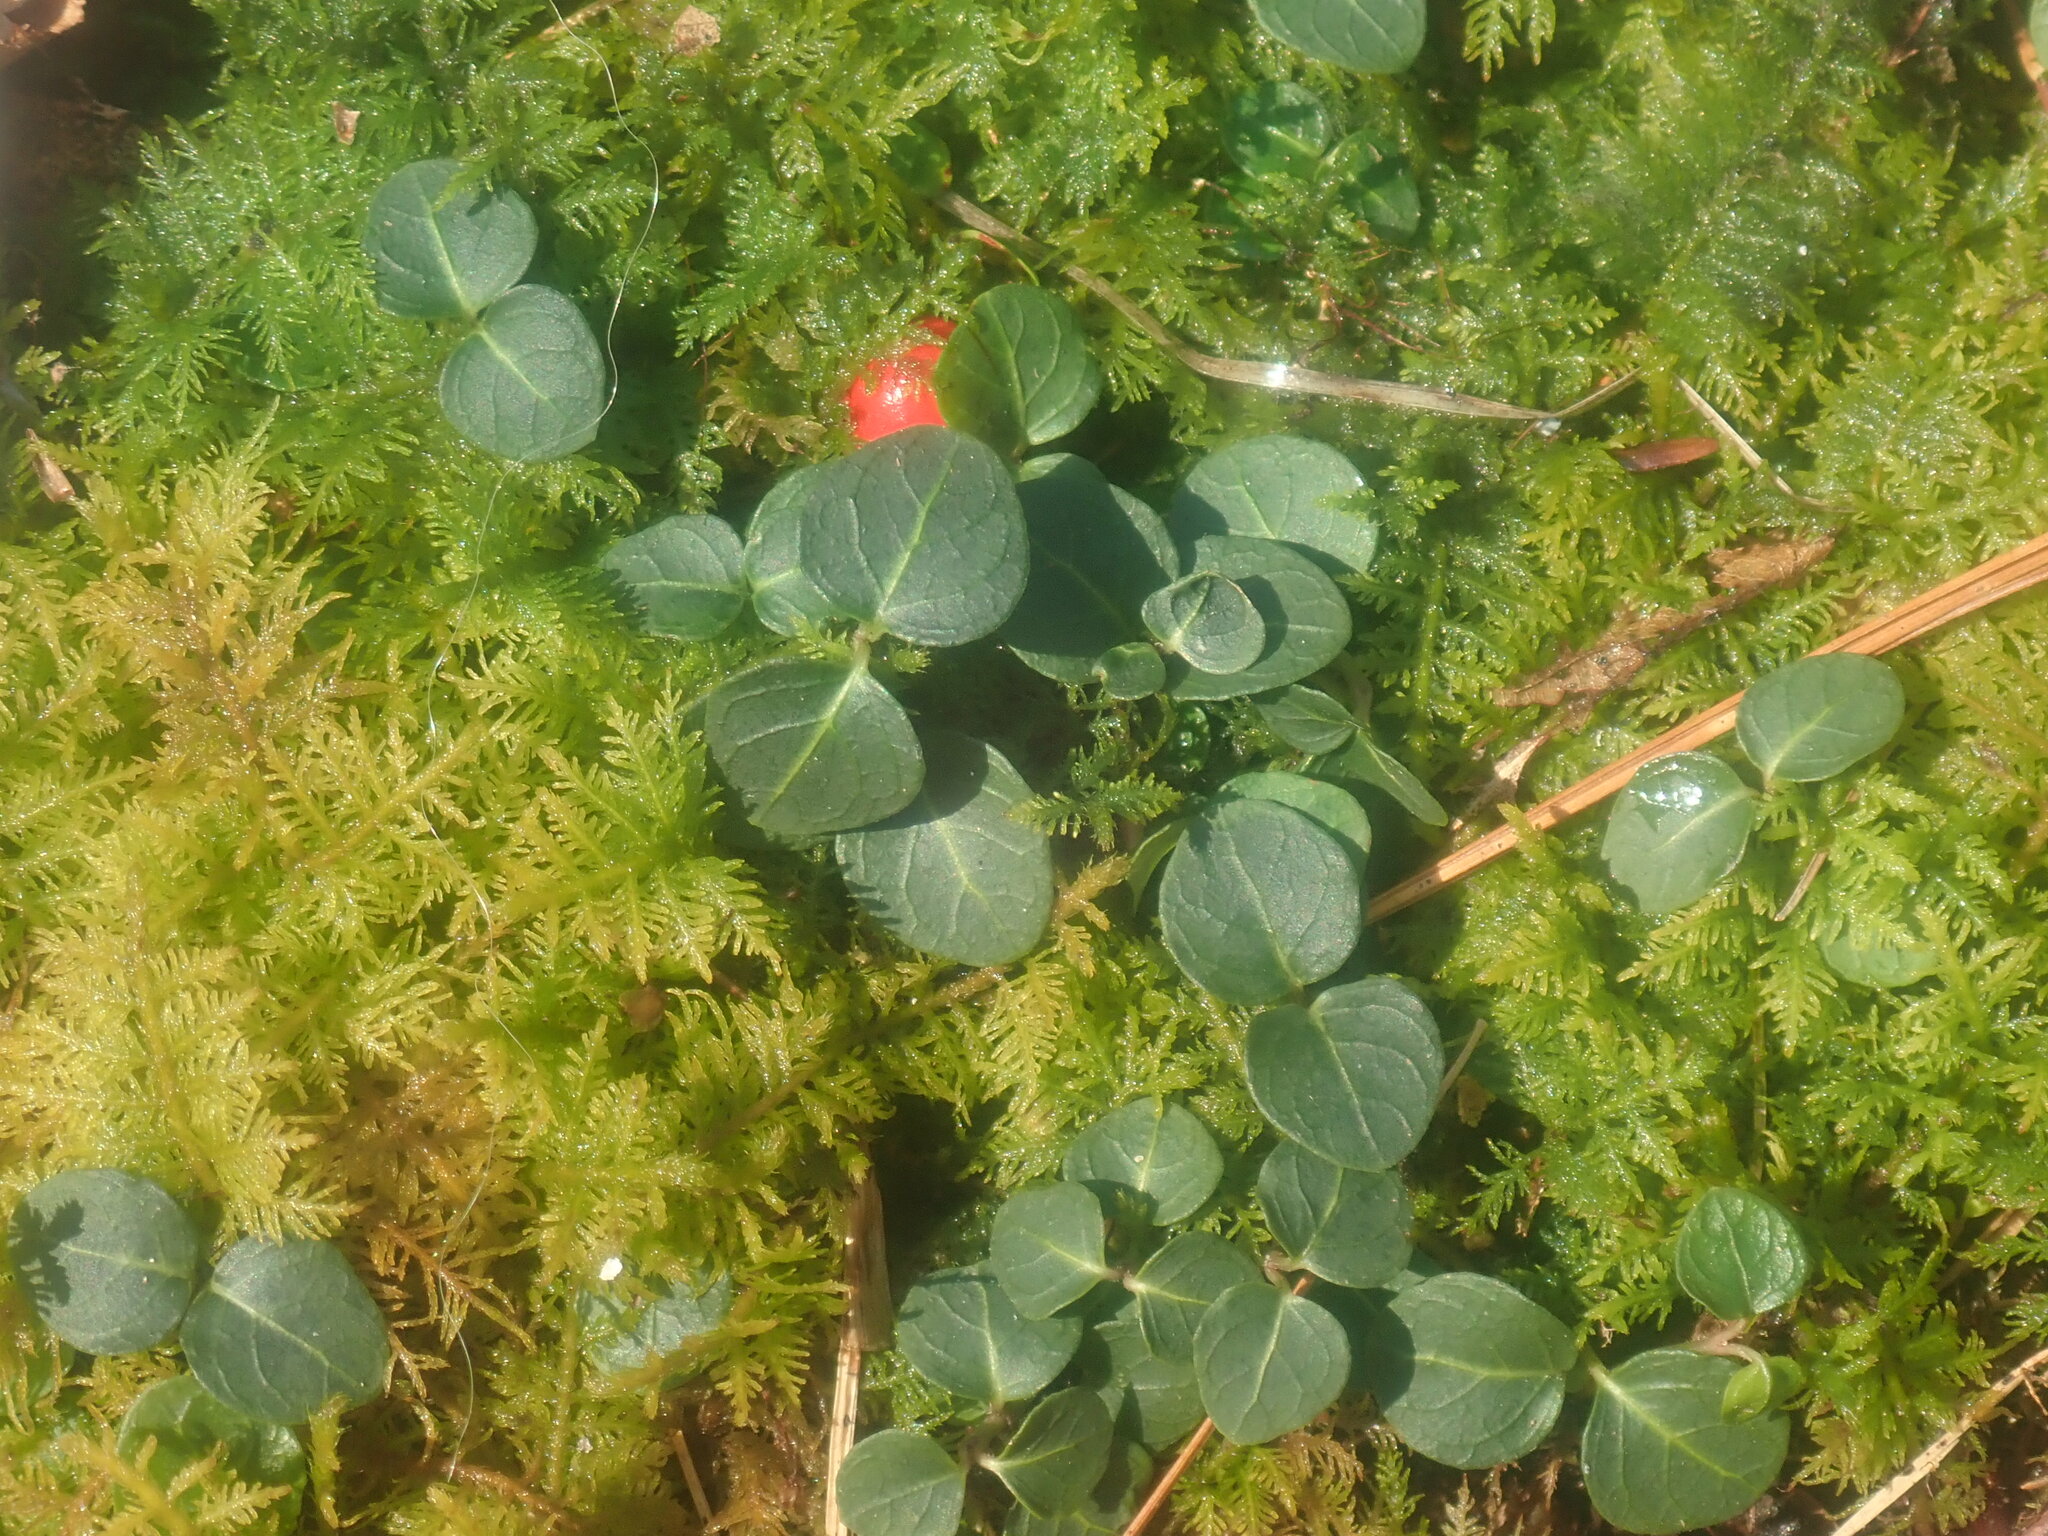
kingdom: Plantae
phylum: Tracheophyta
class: Magnoliopsida
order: Gentianales
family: Rubiaceae
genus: Mitchella
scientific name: Mitchella repens
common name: Partridge-berry
